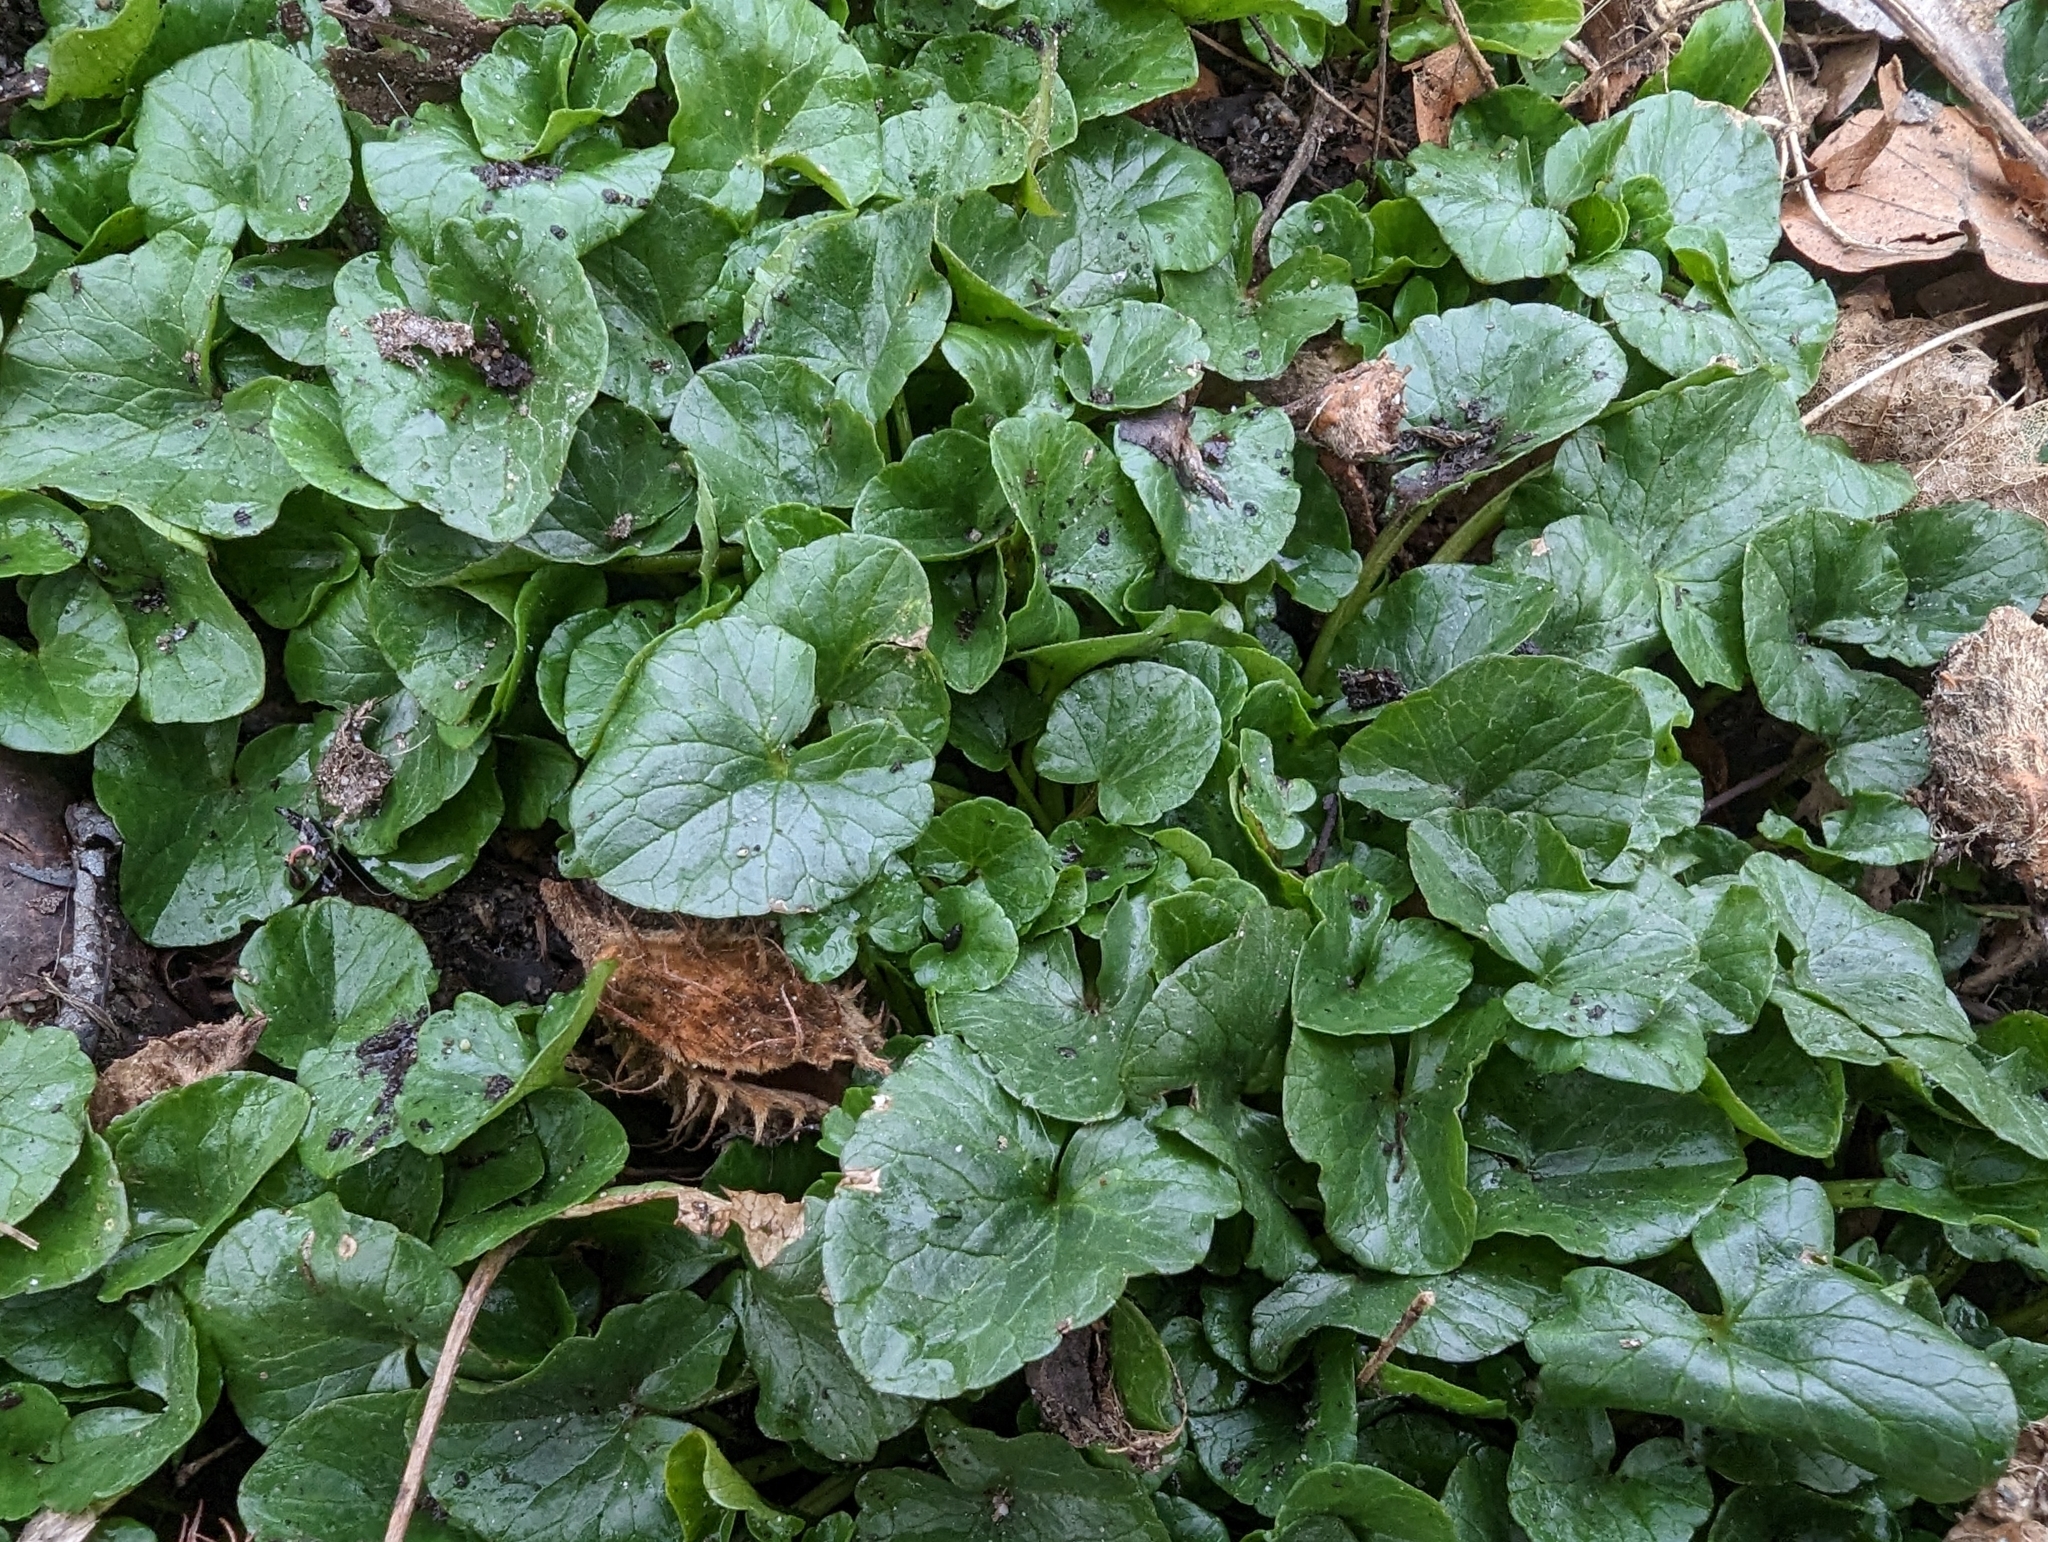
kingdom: Plantae
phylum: Tracheophyta
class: Magnoliopsida
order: Ranunculales
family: Ranunculaceae
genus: Ficaria
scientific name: Ficaria verna
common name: Lesser celandine
